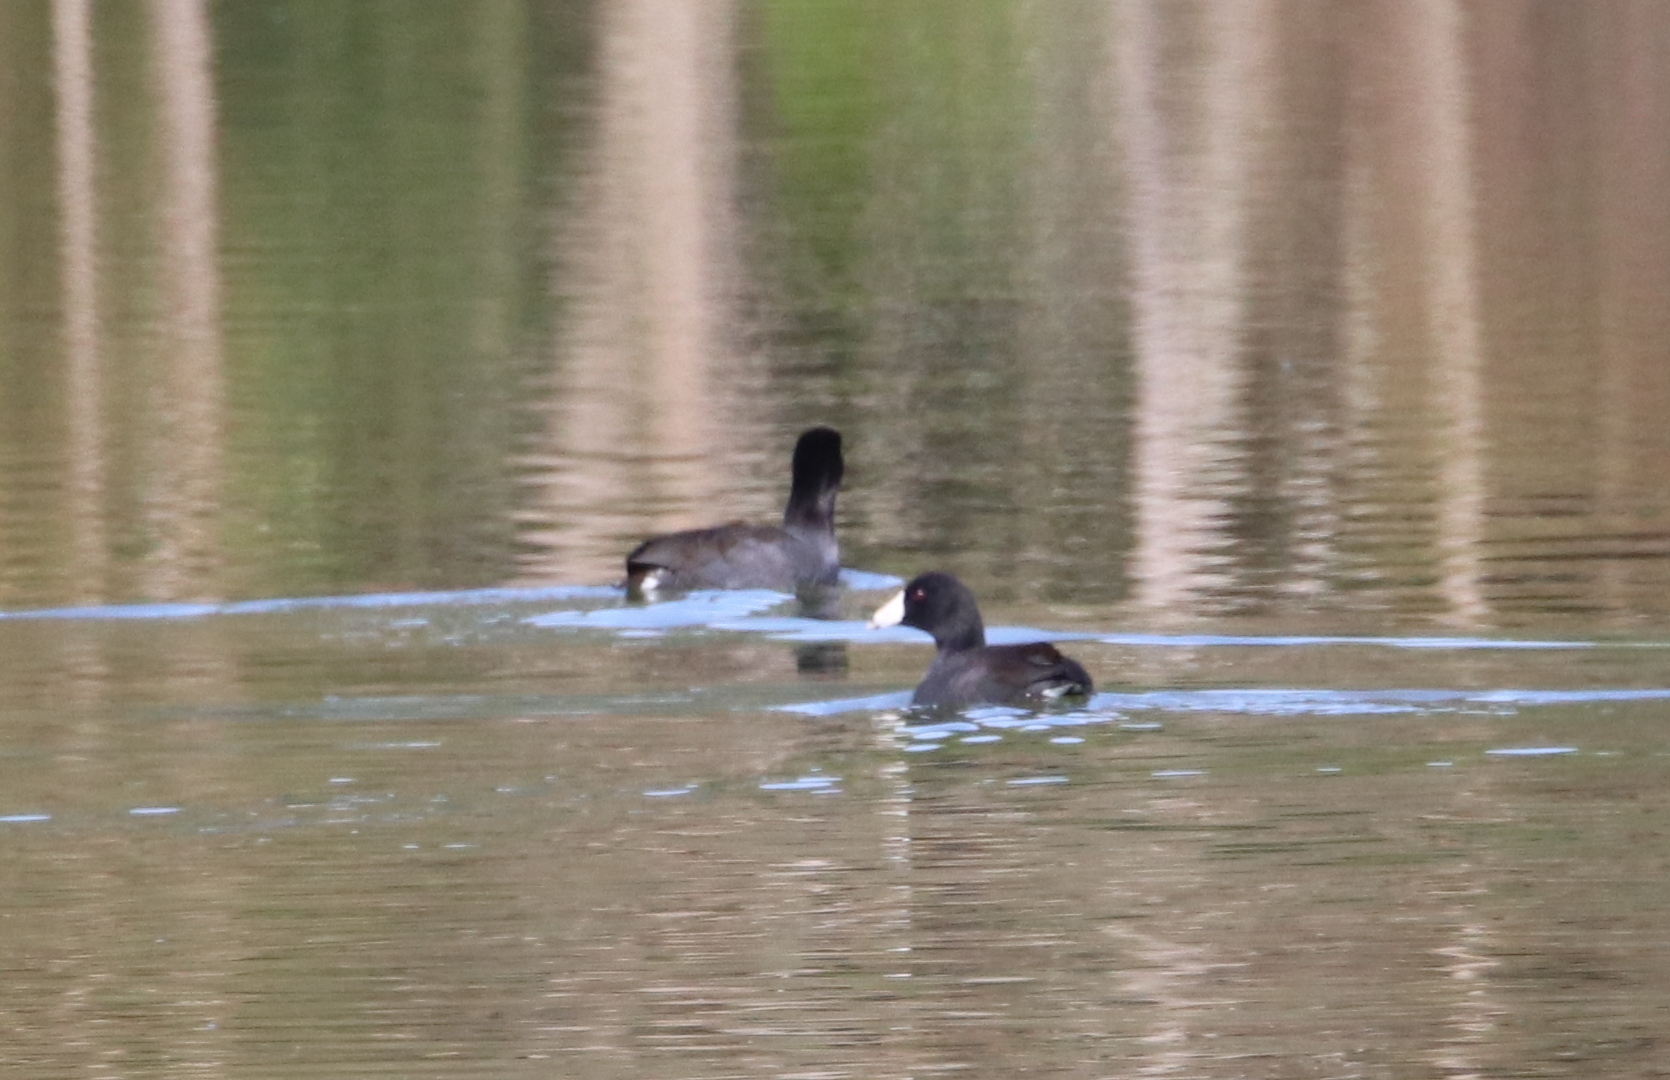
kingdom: Animalia
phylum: Chordata
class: Aves
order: Gruiformes
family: Rallidae
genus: Fulica
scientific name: Fulica americana
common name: American coot
